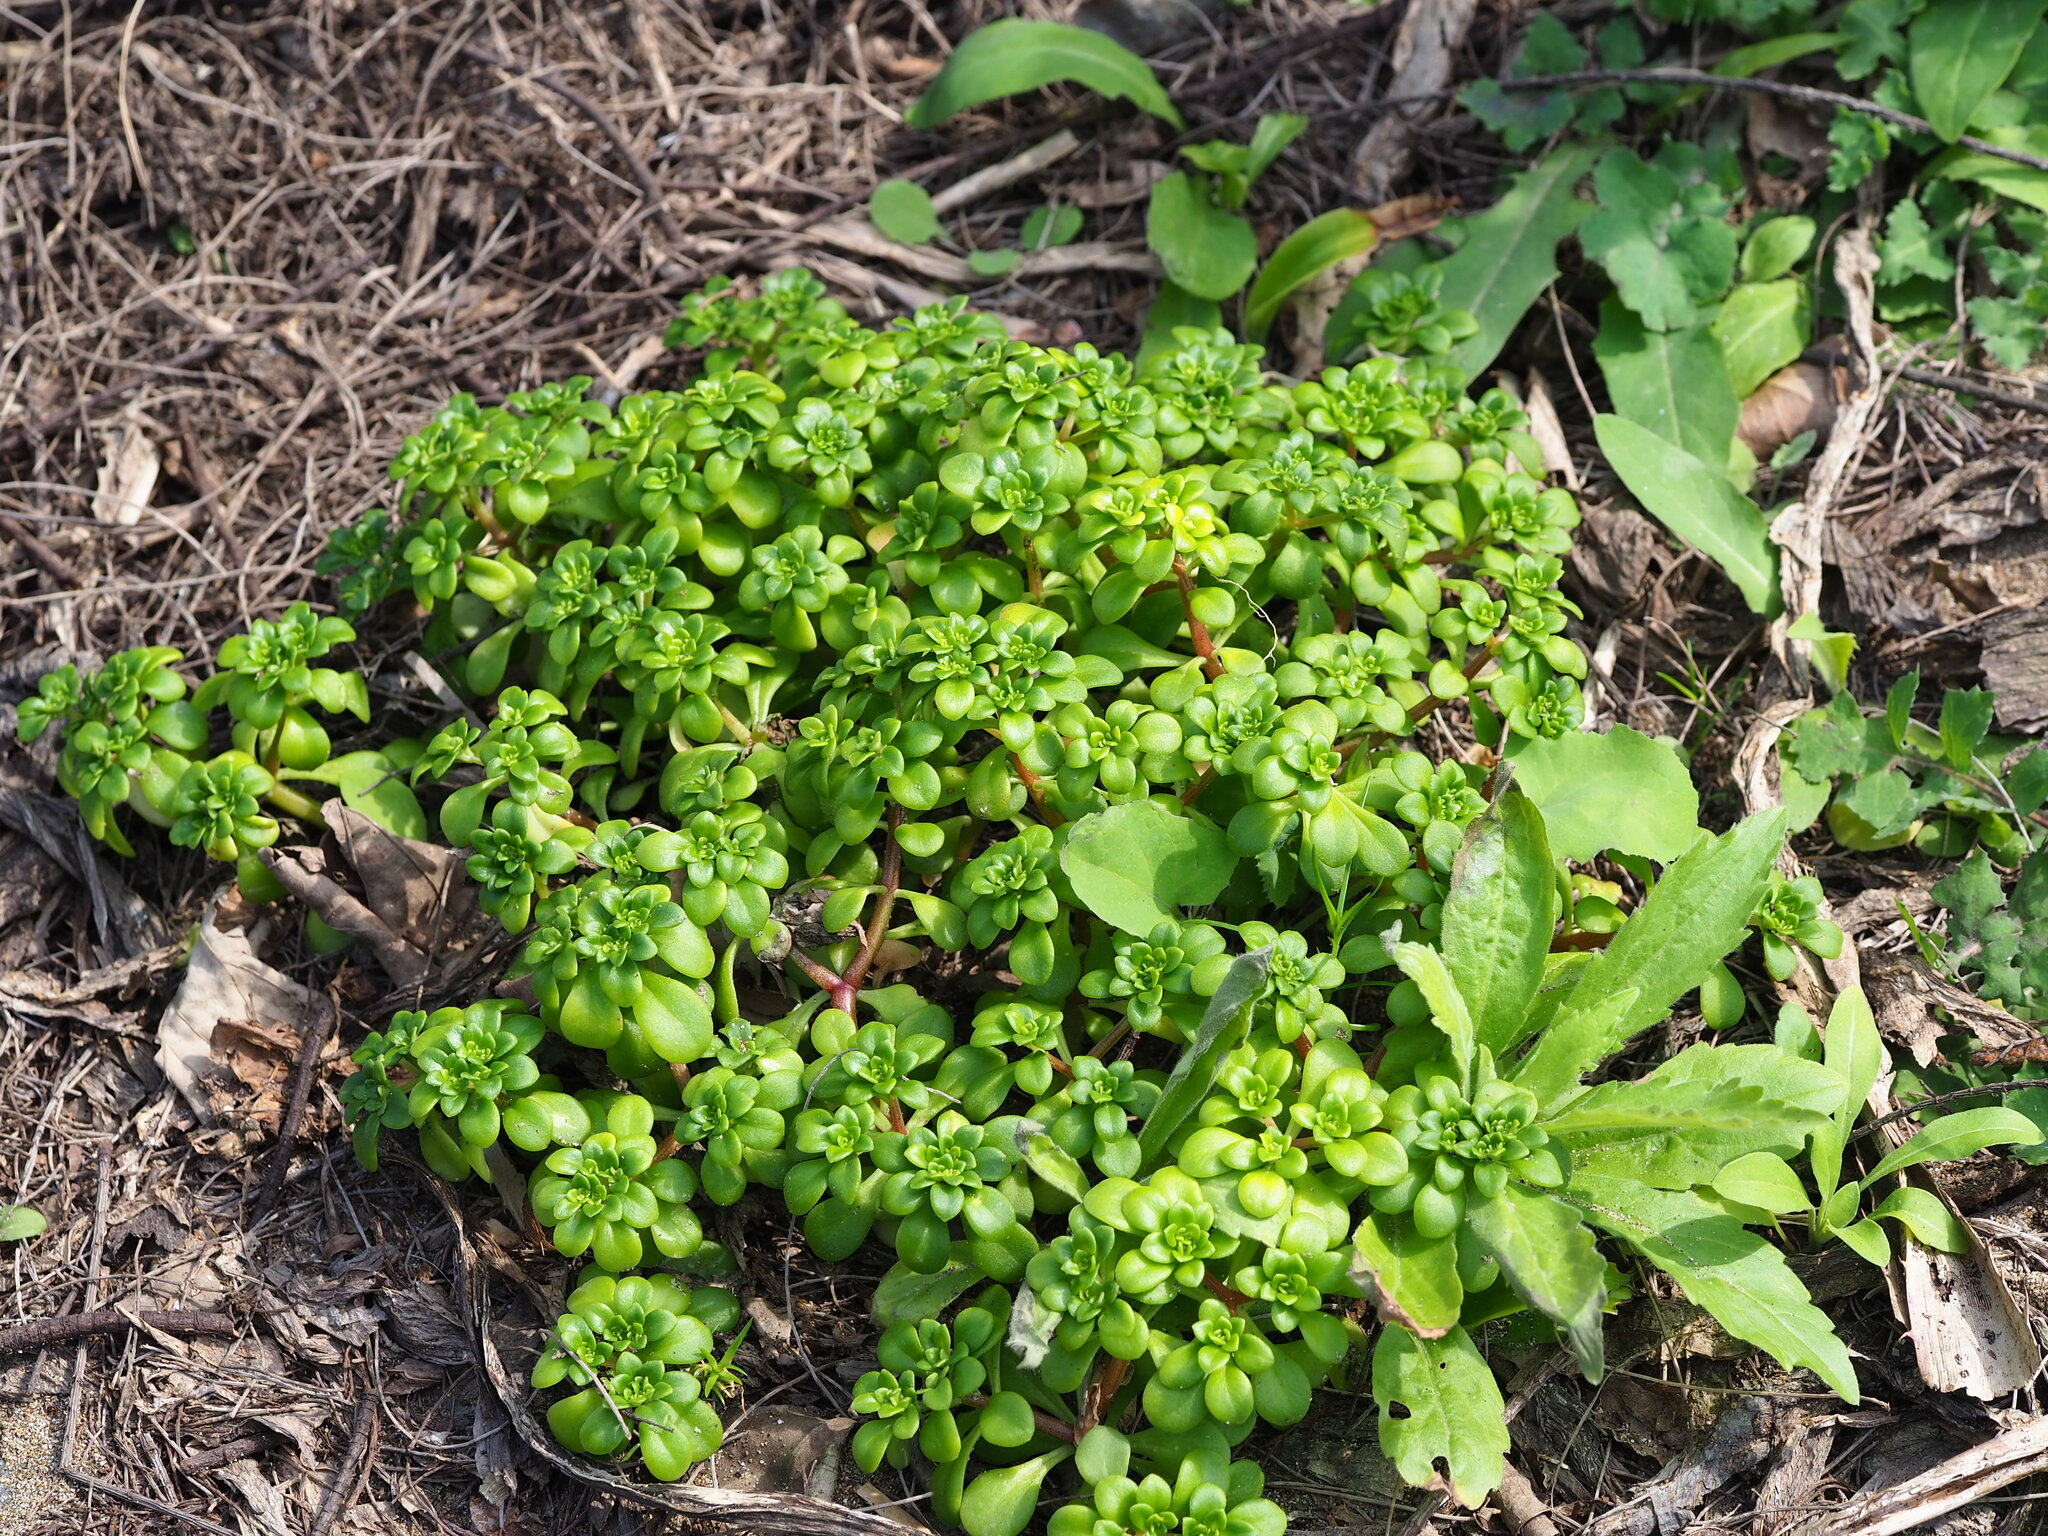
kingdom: Plantae
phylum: Tracheophyta
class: Magnoliopsida
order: Saxifragales
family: Crassulaceae
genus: Sedum
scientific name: Sedum formosanum
